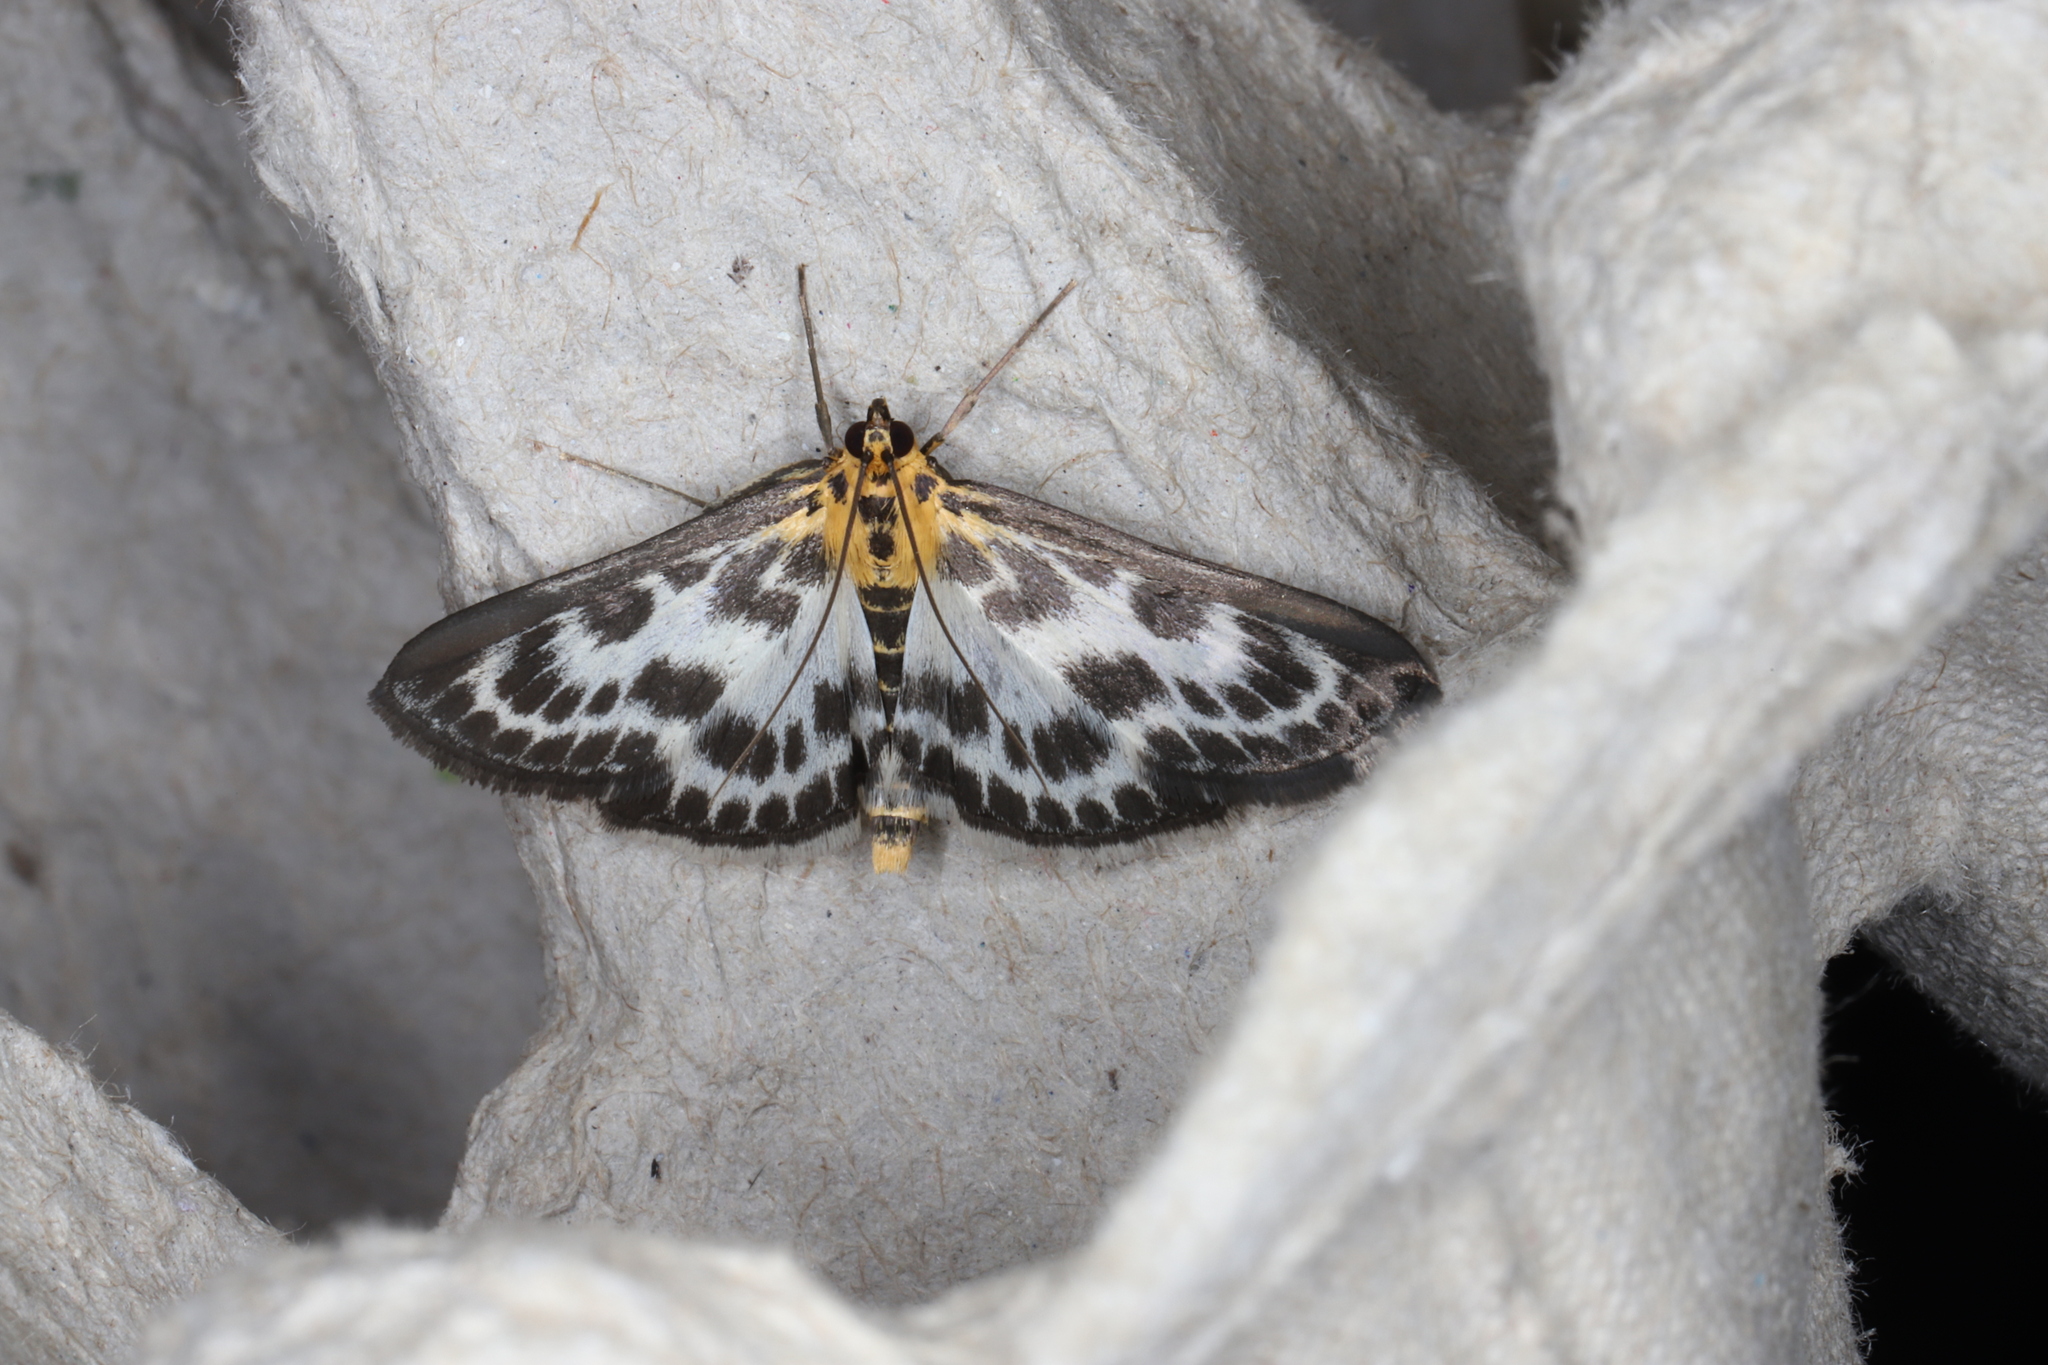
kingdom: Animalia
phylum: Arthropoda
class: Insecta
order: Lepidoptera
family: Crambidae
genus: Anania
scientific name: Anania hortulata
